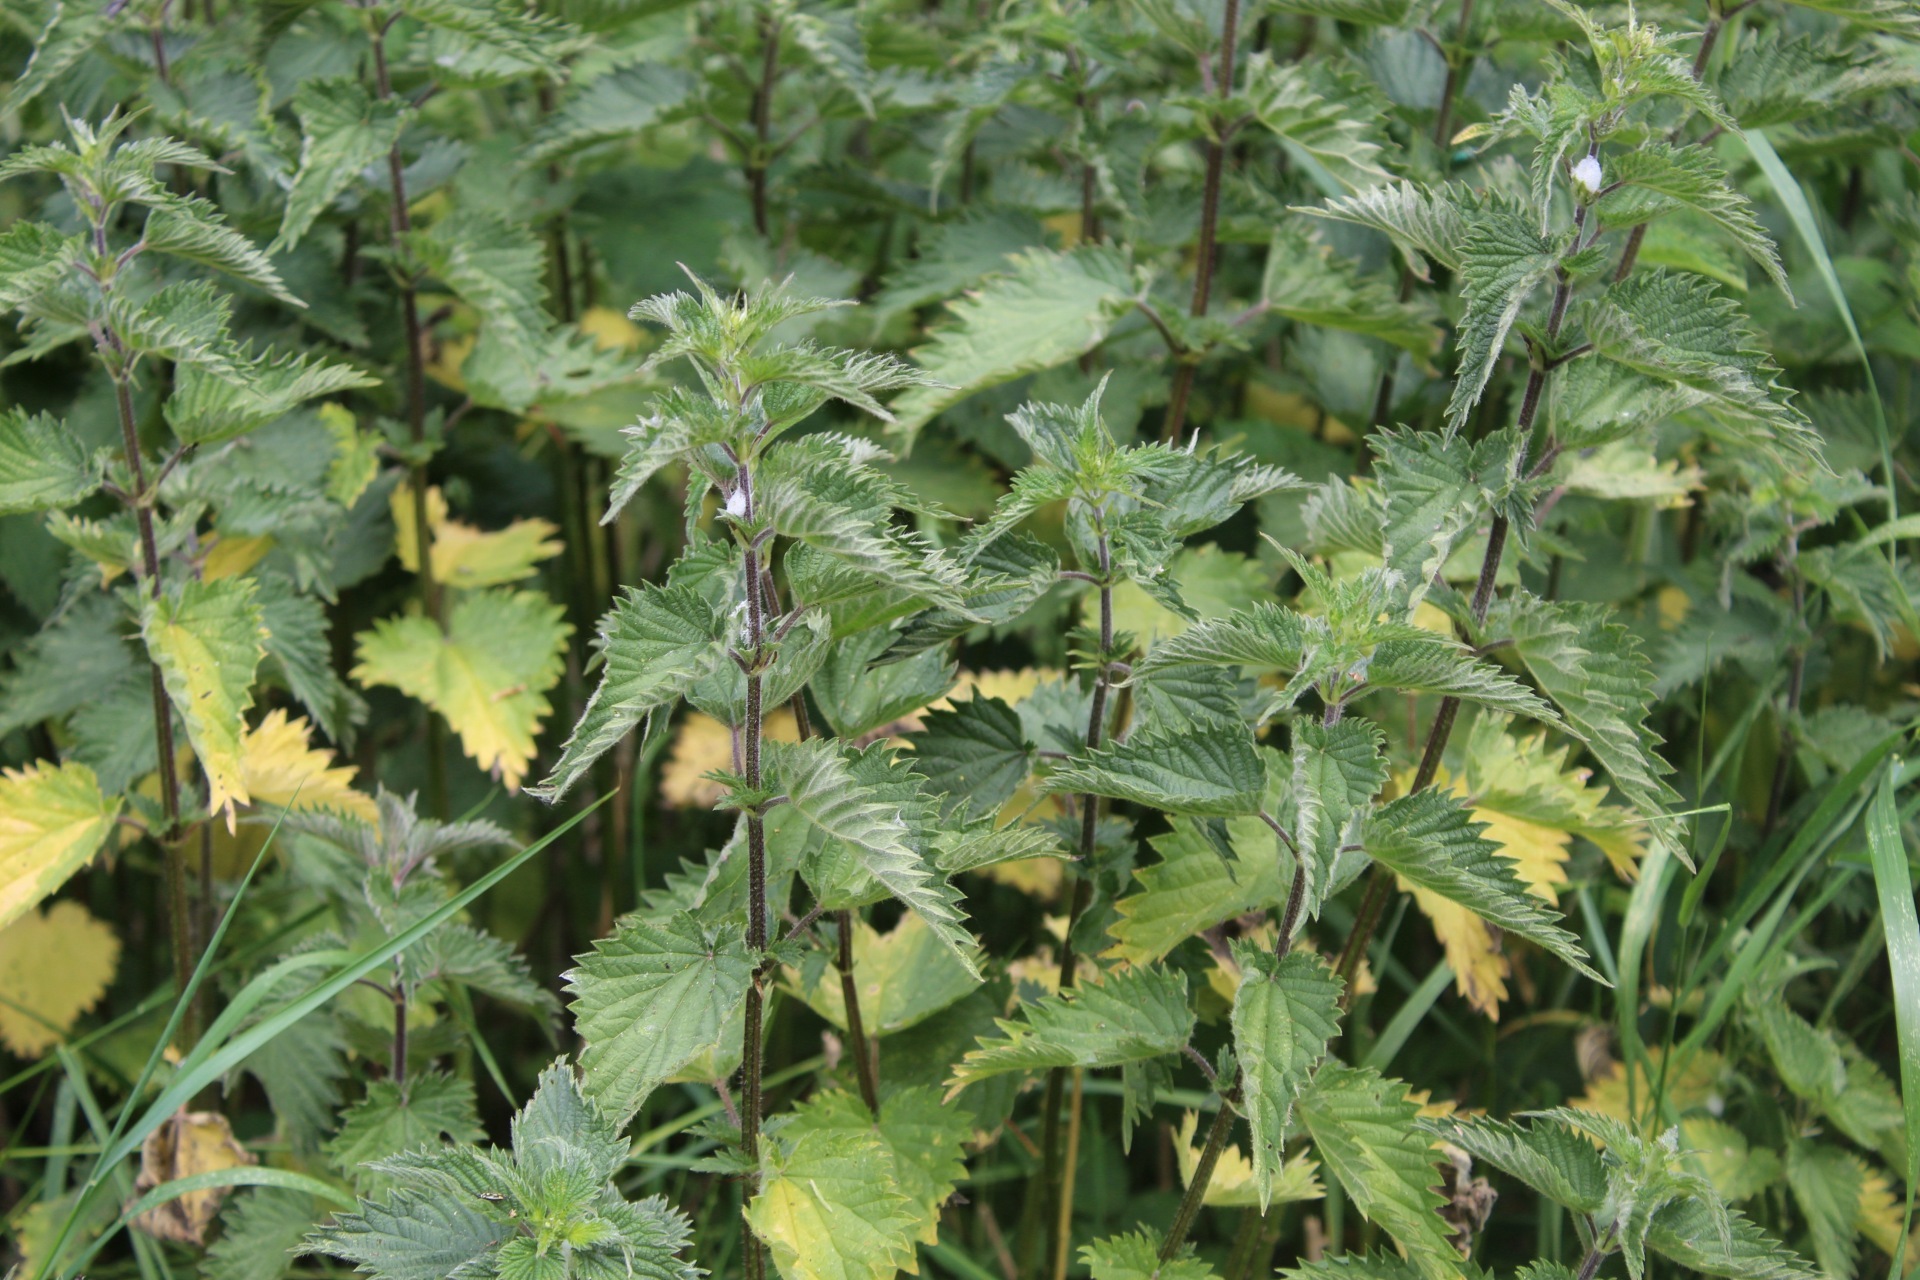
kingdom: Plantae
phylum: Tracheophyta
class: Magnoliopsida
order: Rosales
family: Urticaceae
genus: Urtica
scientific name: Urtica dioica
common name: Common nettle
